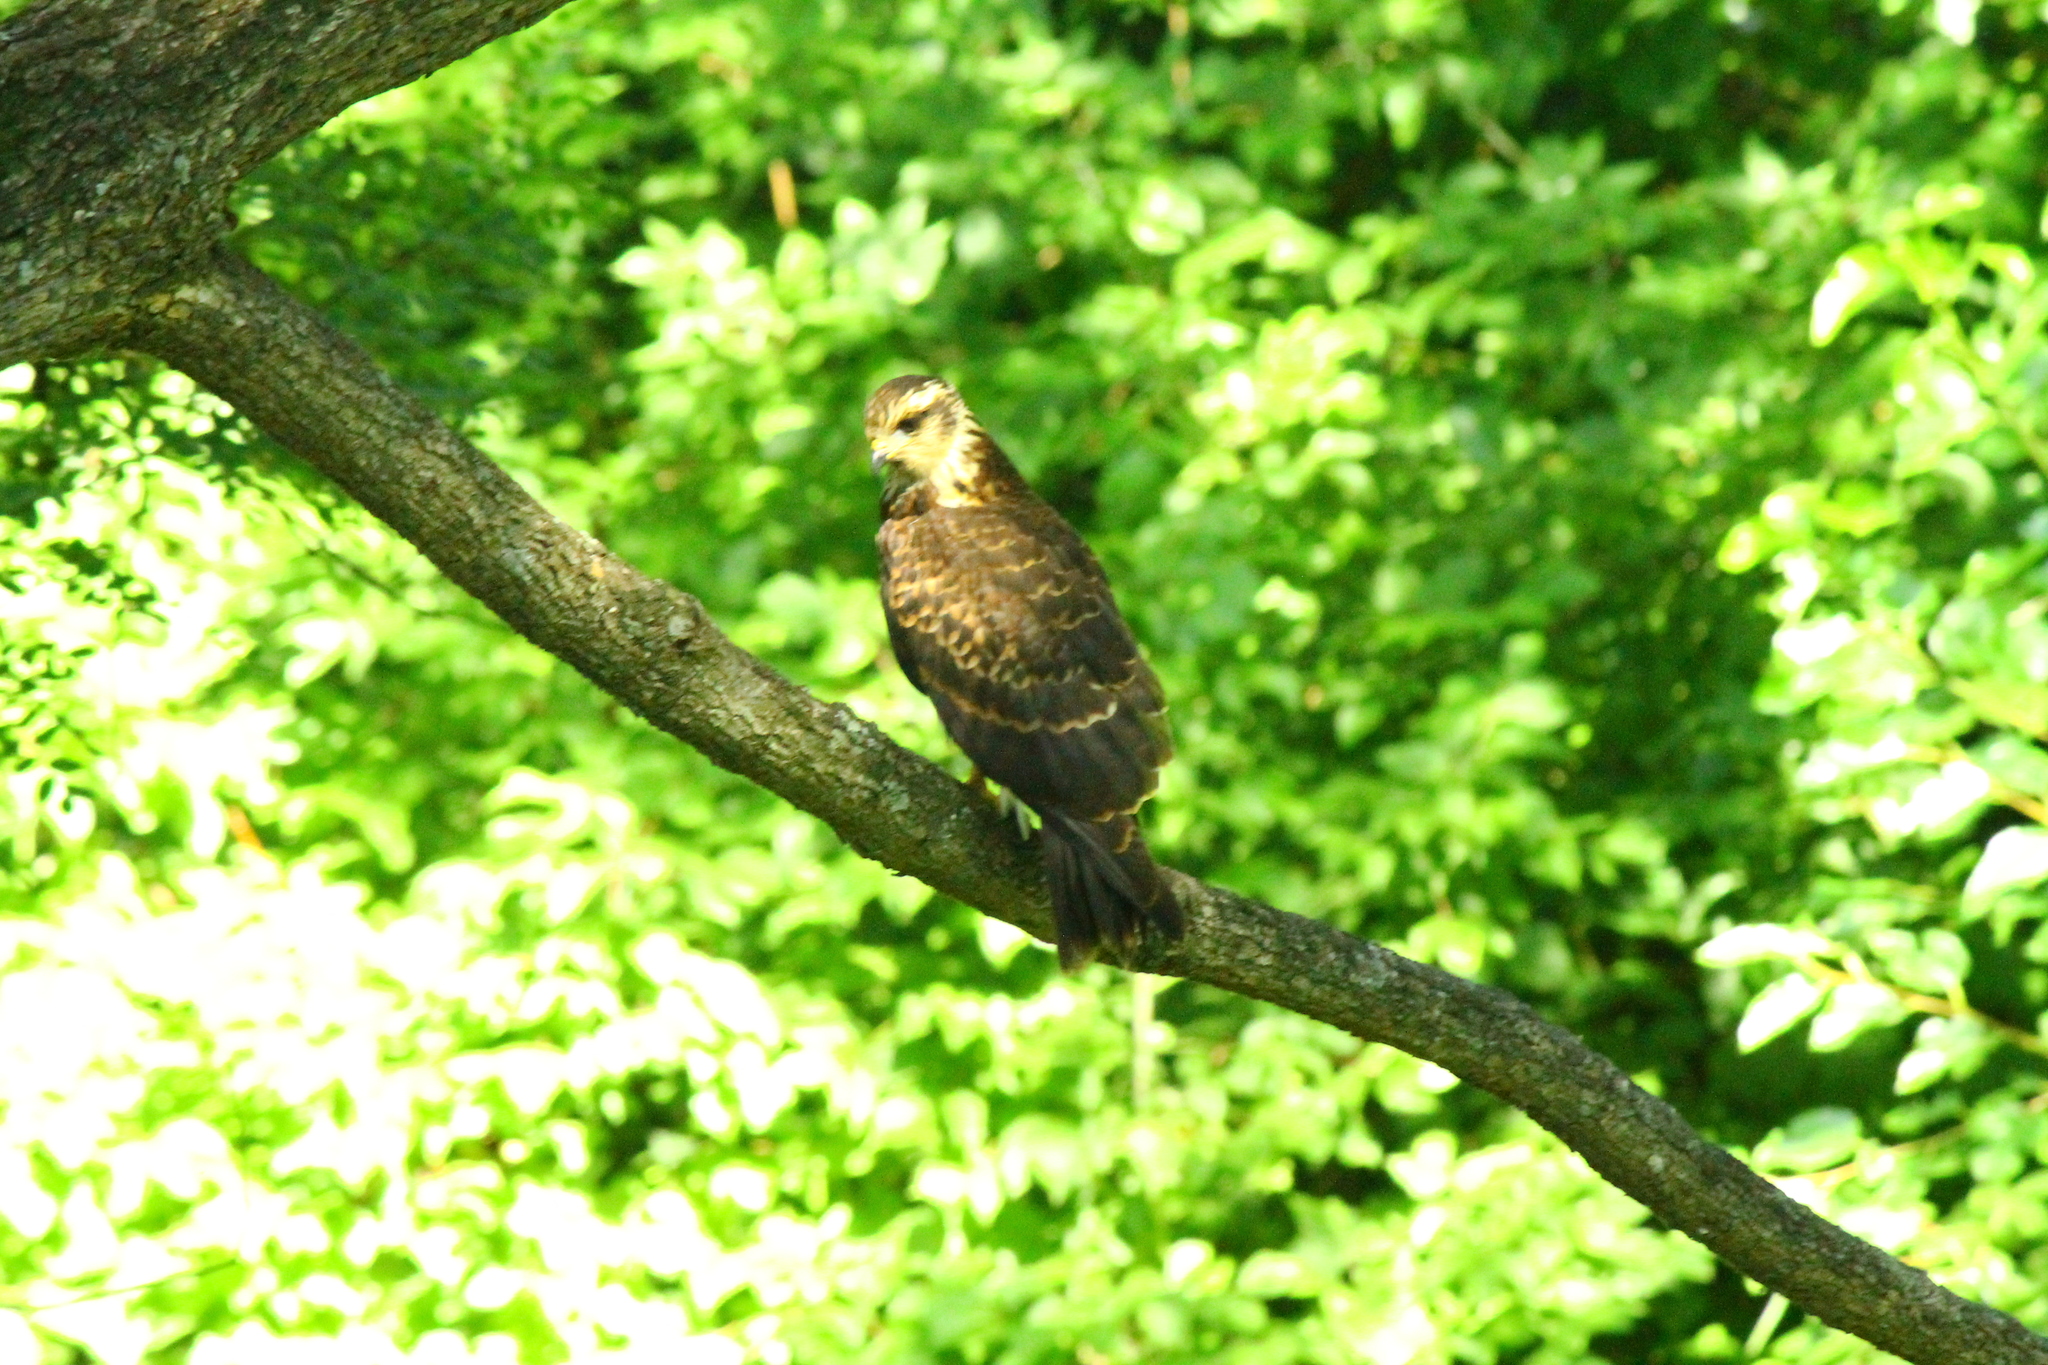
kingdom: Animalia
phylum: Chordata
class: Aves
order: Accipitriformes
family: Accipitridae
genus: Rostrhamus
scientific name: Rostrhamus sociabilis
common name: Snail kite
